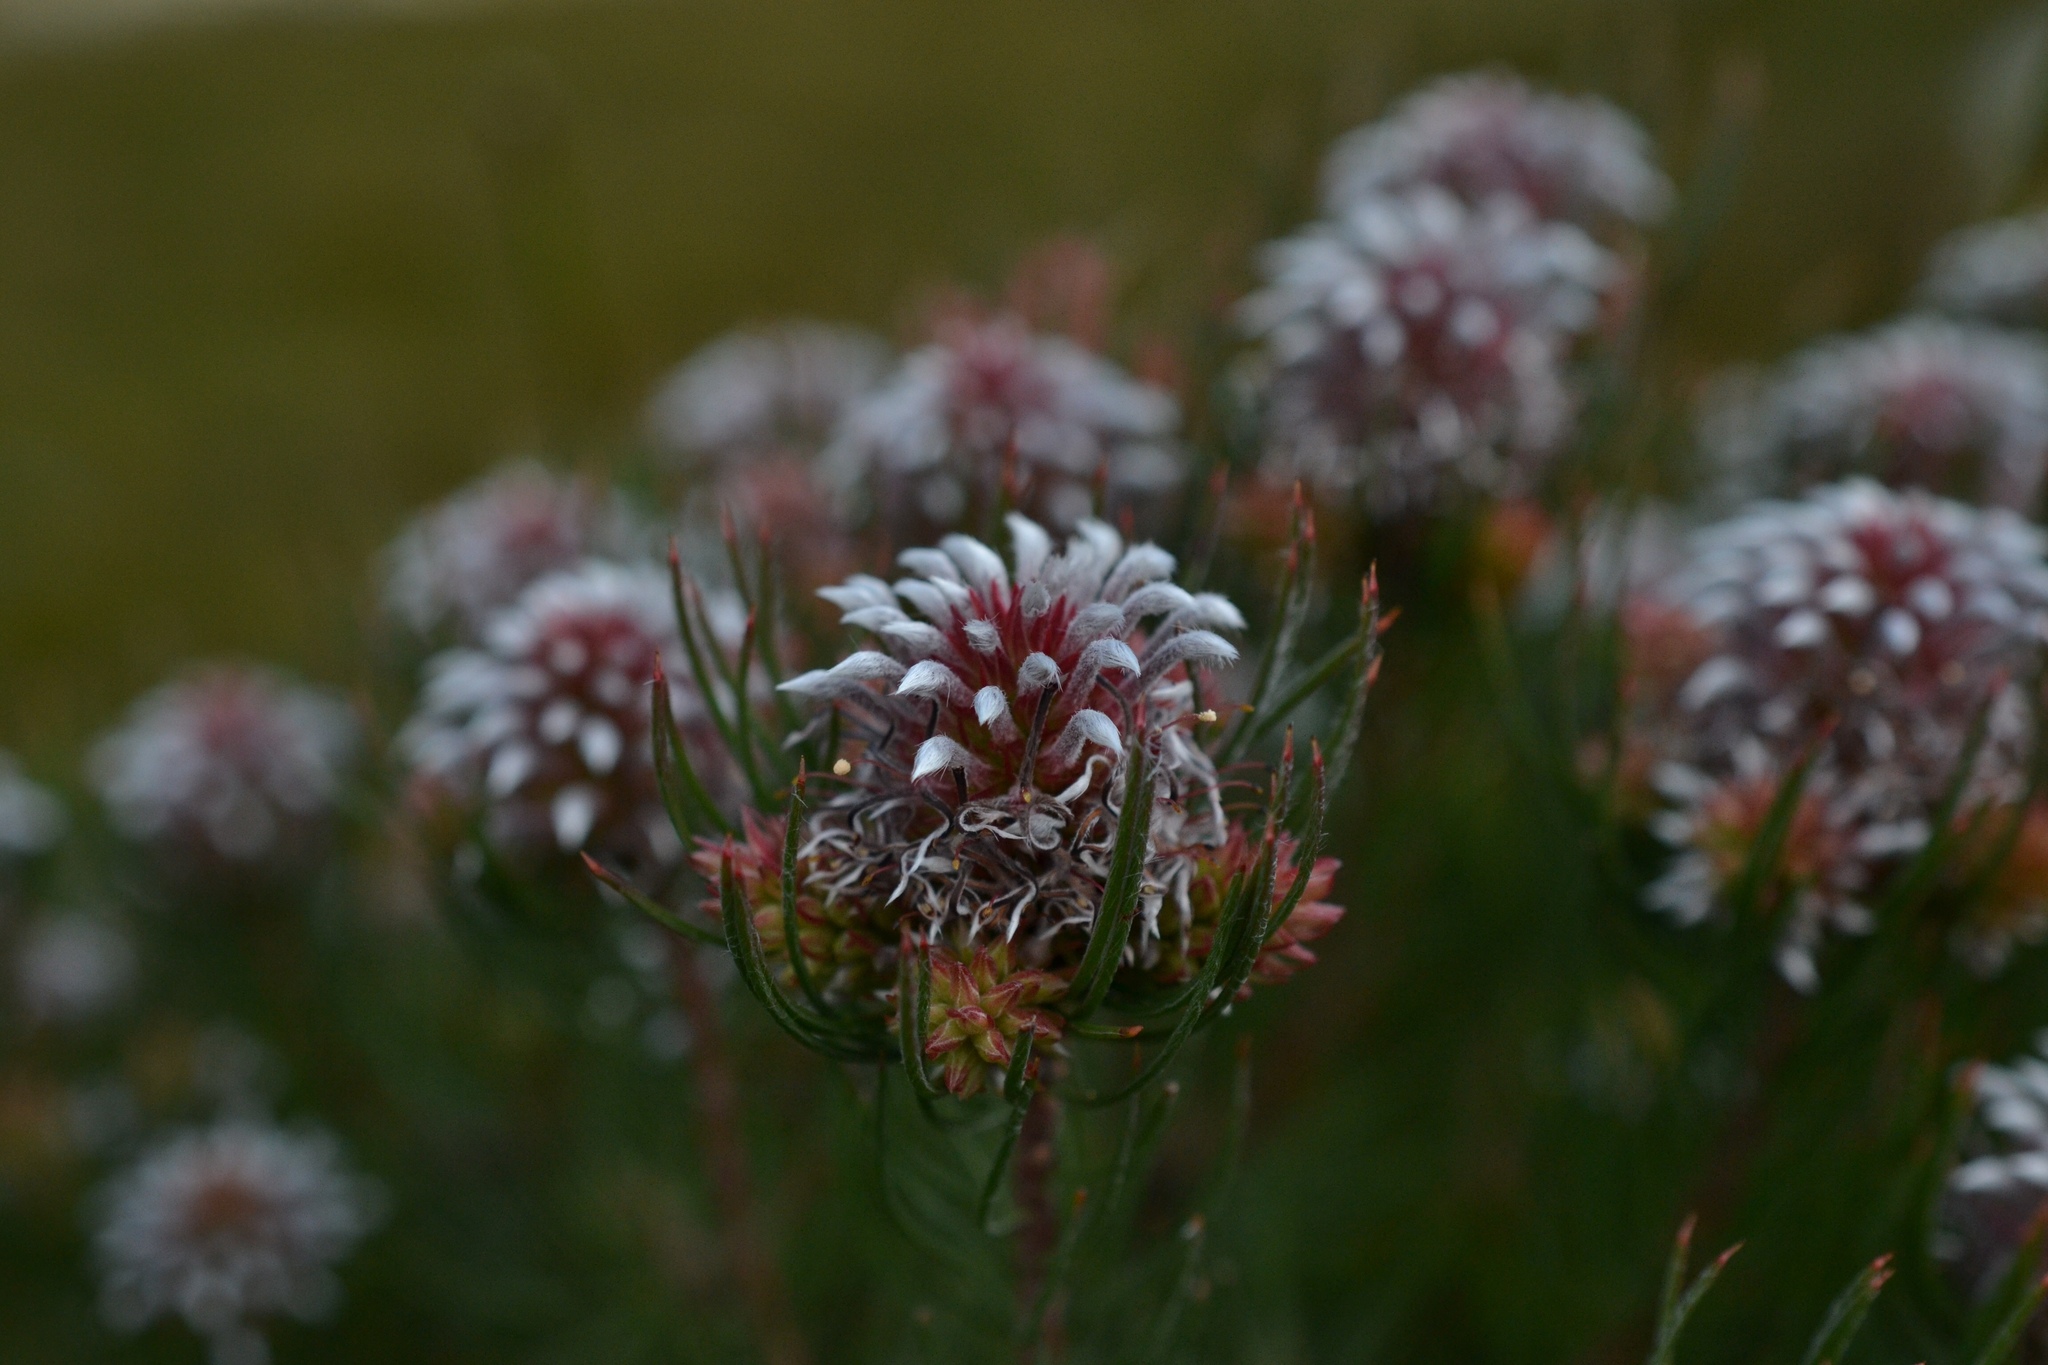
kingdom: Plantae
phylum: Tracheophyta
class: Magnoliopsida
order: Proteales
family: Proteaceae
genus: Spatalla
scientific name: Spatalla setacea
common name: Needle-leaf spoon
